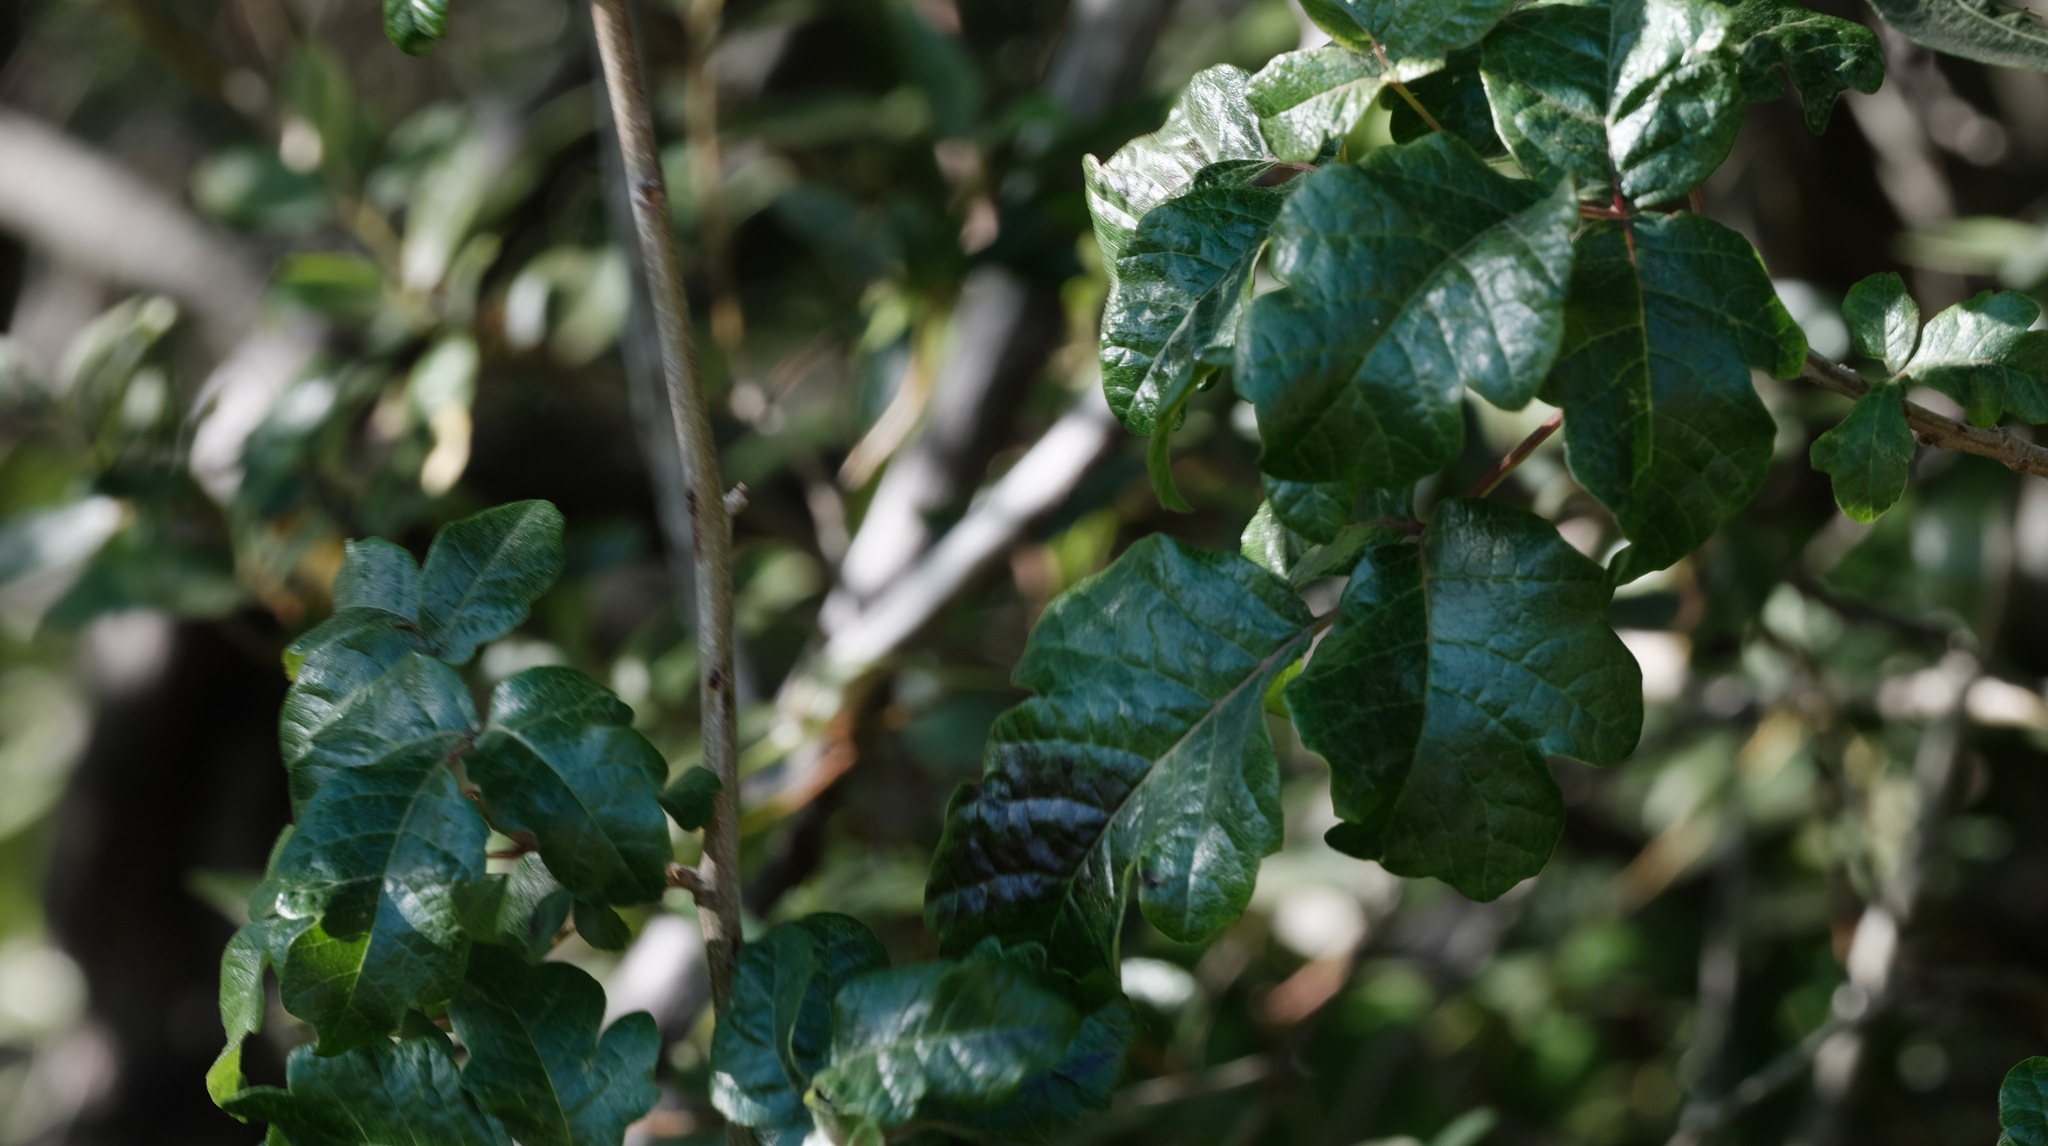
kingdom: Plantae
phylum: Tracheophyta
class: Magnoliopsida
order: Sapindales
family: Anacardiaceae
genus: Toxicodendron
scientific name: Toxicodendron diversilobum
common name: Pacific poison-oak
